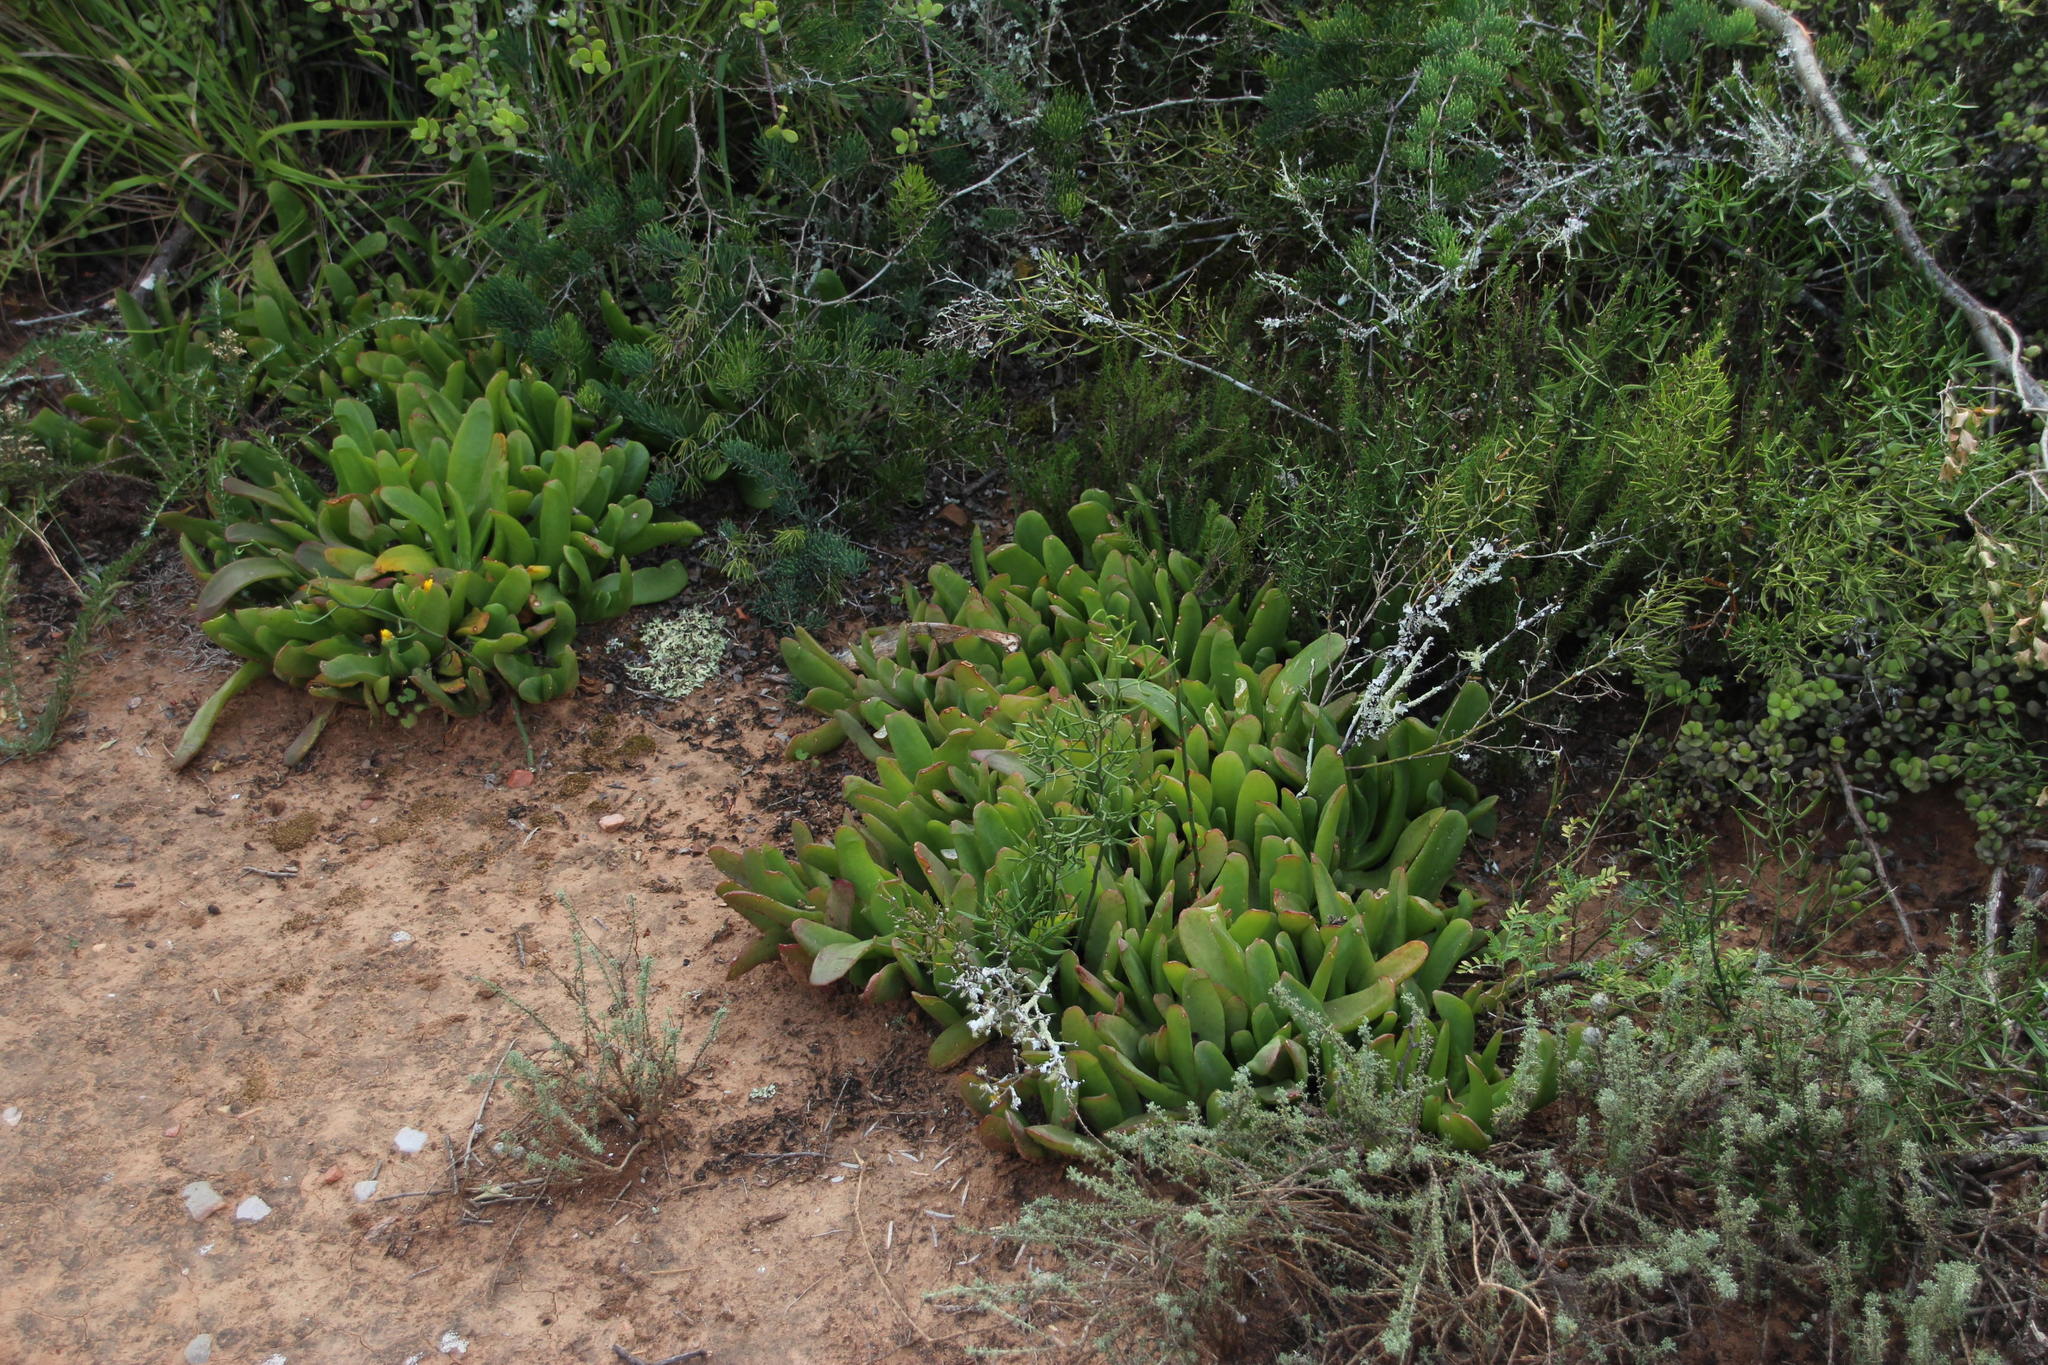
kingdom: Plantae
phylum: Tracheophyta
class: Magnoliopsida
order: Caryophyllales
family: Aizoaceae
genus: Glottiphyllum
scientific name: Glottiphyllum longum
